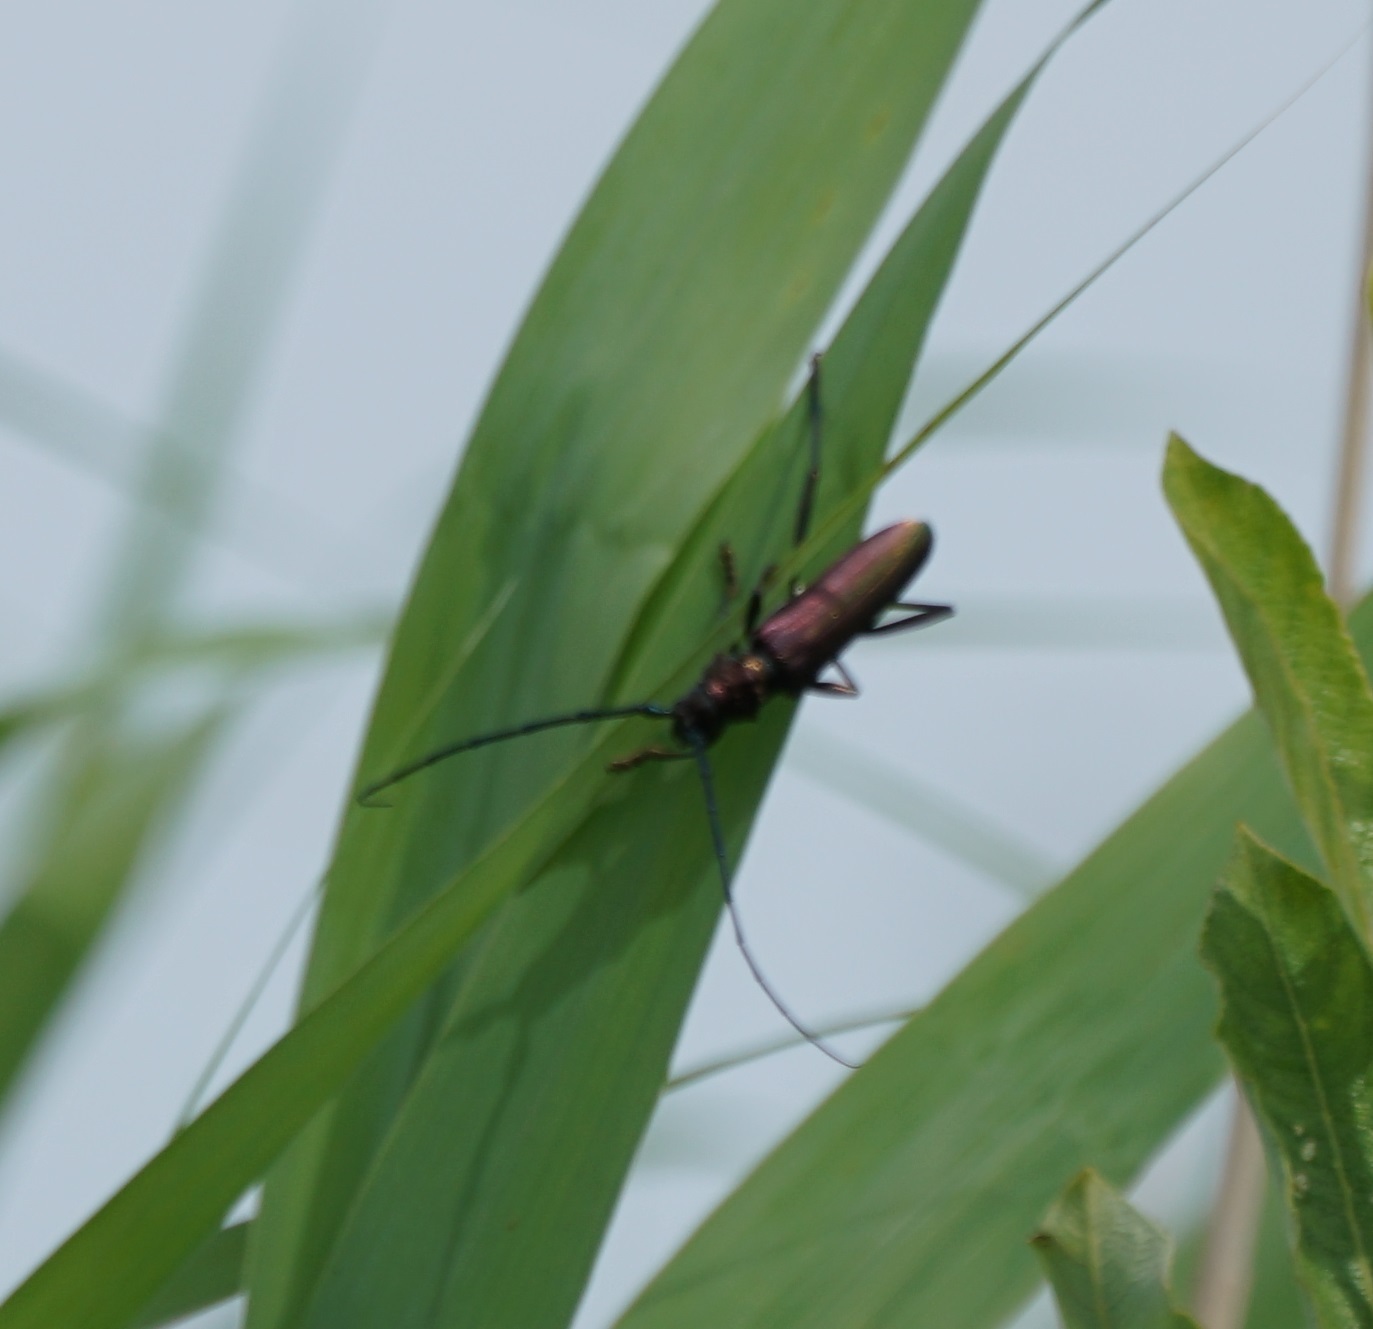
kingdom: Animalia
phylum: Arthropoda
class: Insecta
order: Coleoptera
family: Cerambycidae
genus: Aromia
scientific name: Aromia moschata
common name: Musk beetle
